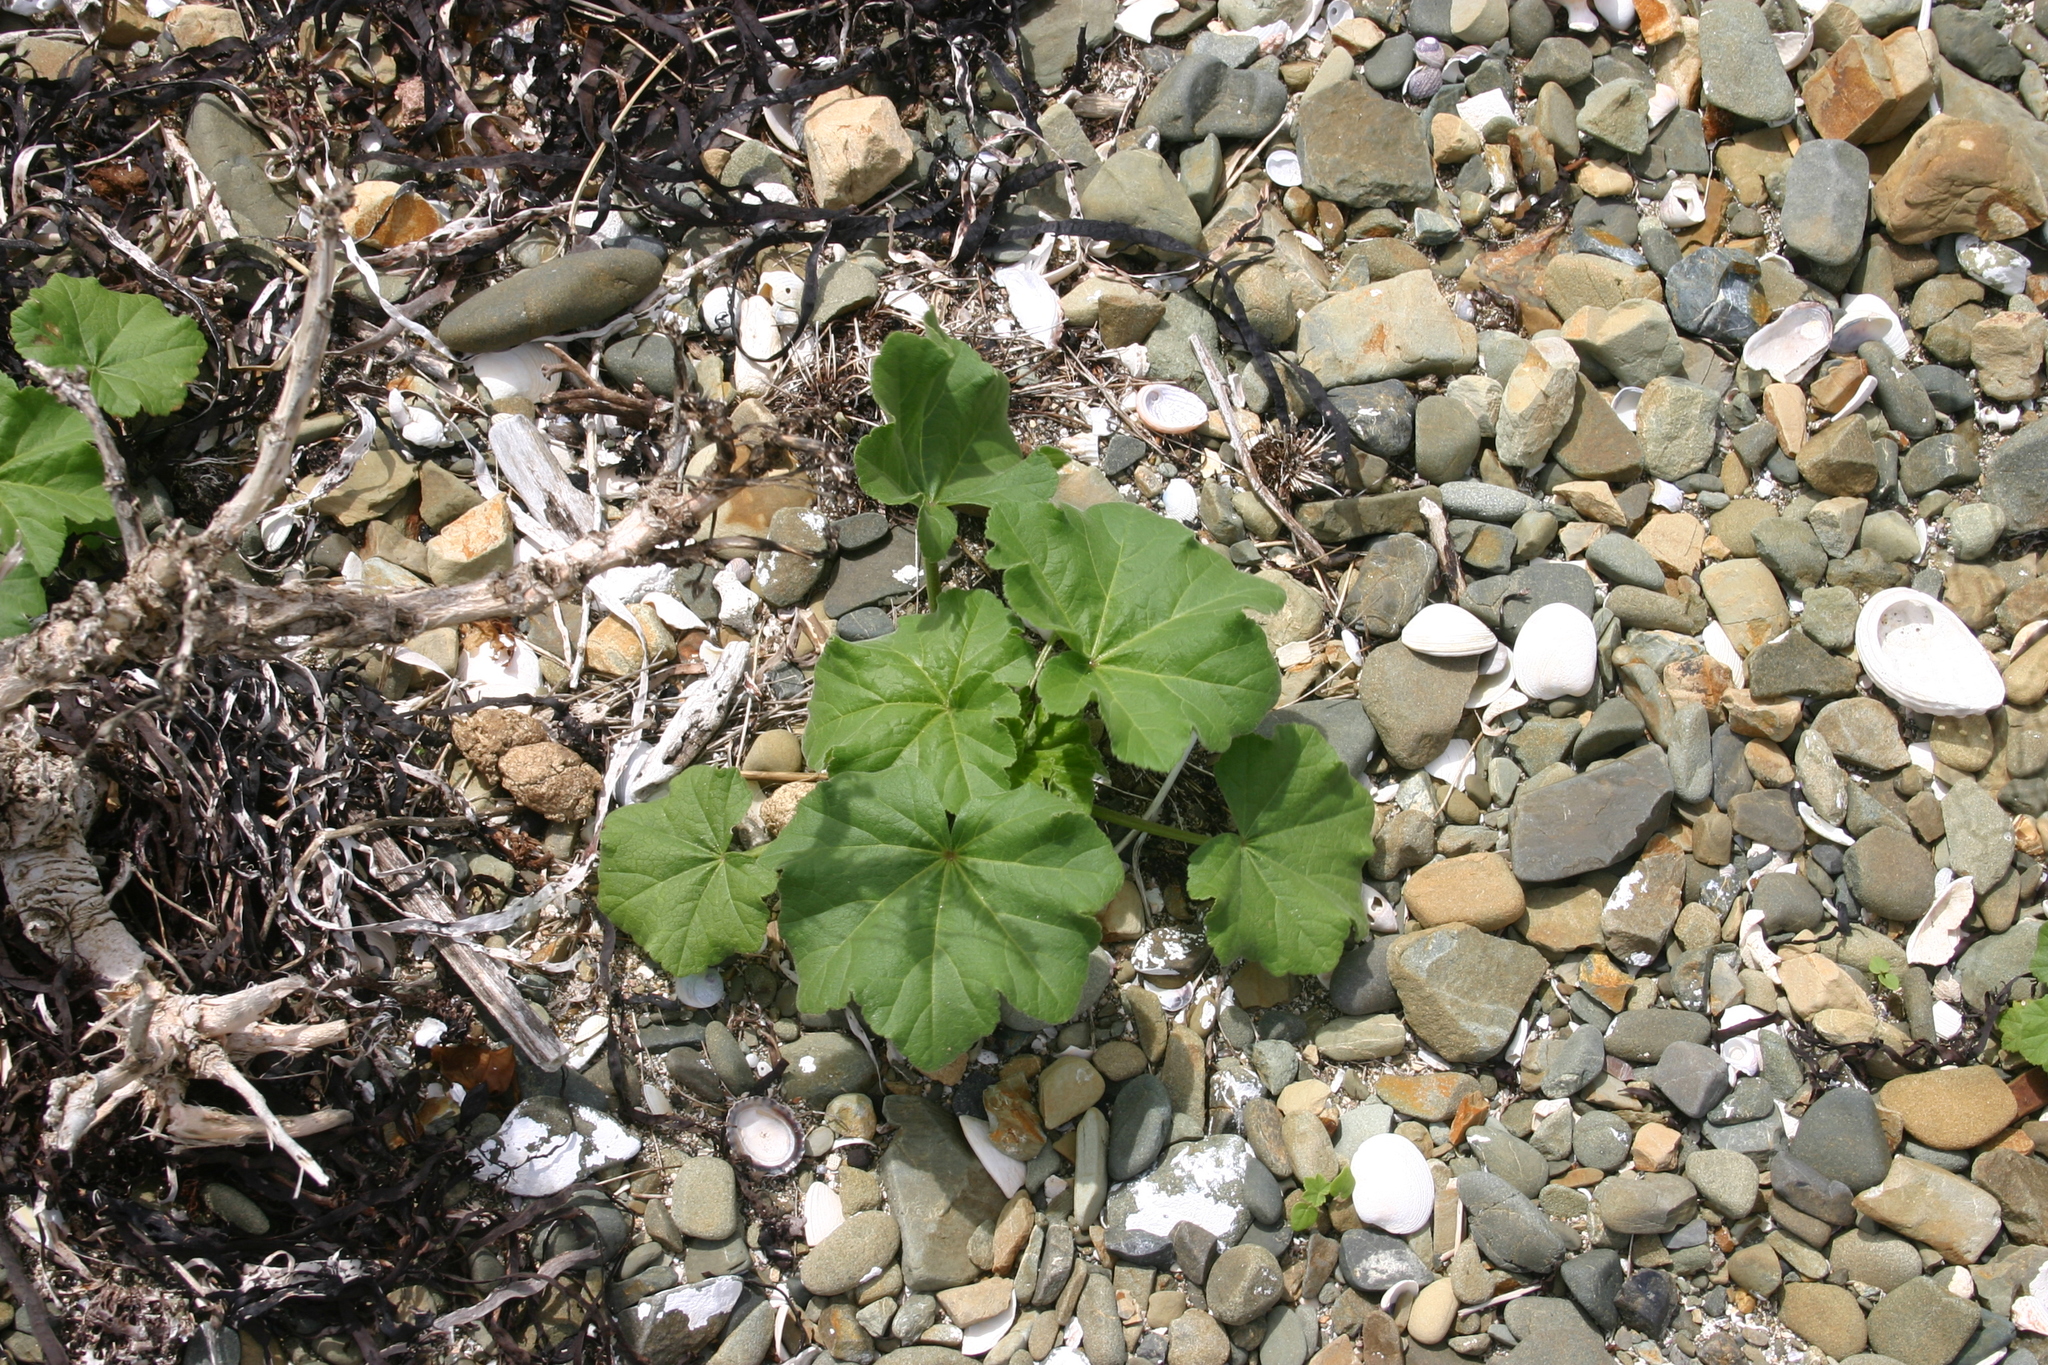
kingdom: Plantae
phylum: Tracheophyta
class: Magnoliopsida
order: Malvales
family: Malvaceae
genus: Malva
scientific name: Malva arborea
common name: Tree mallow
